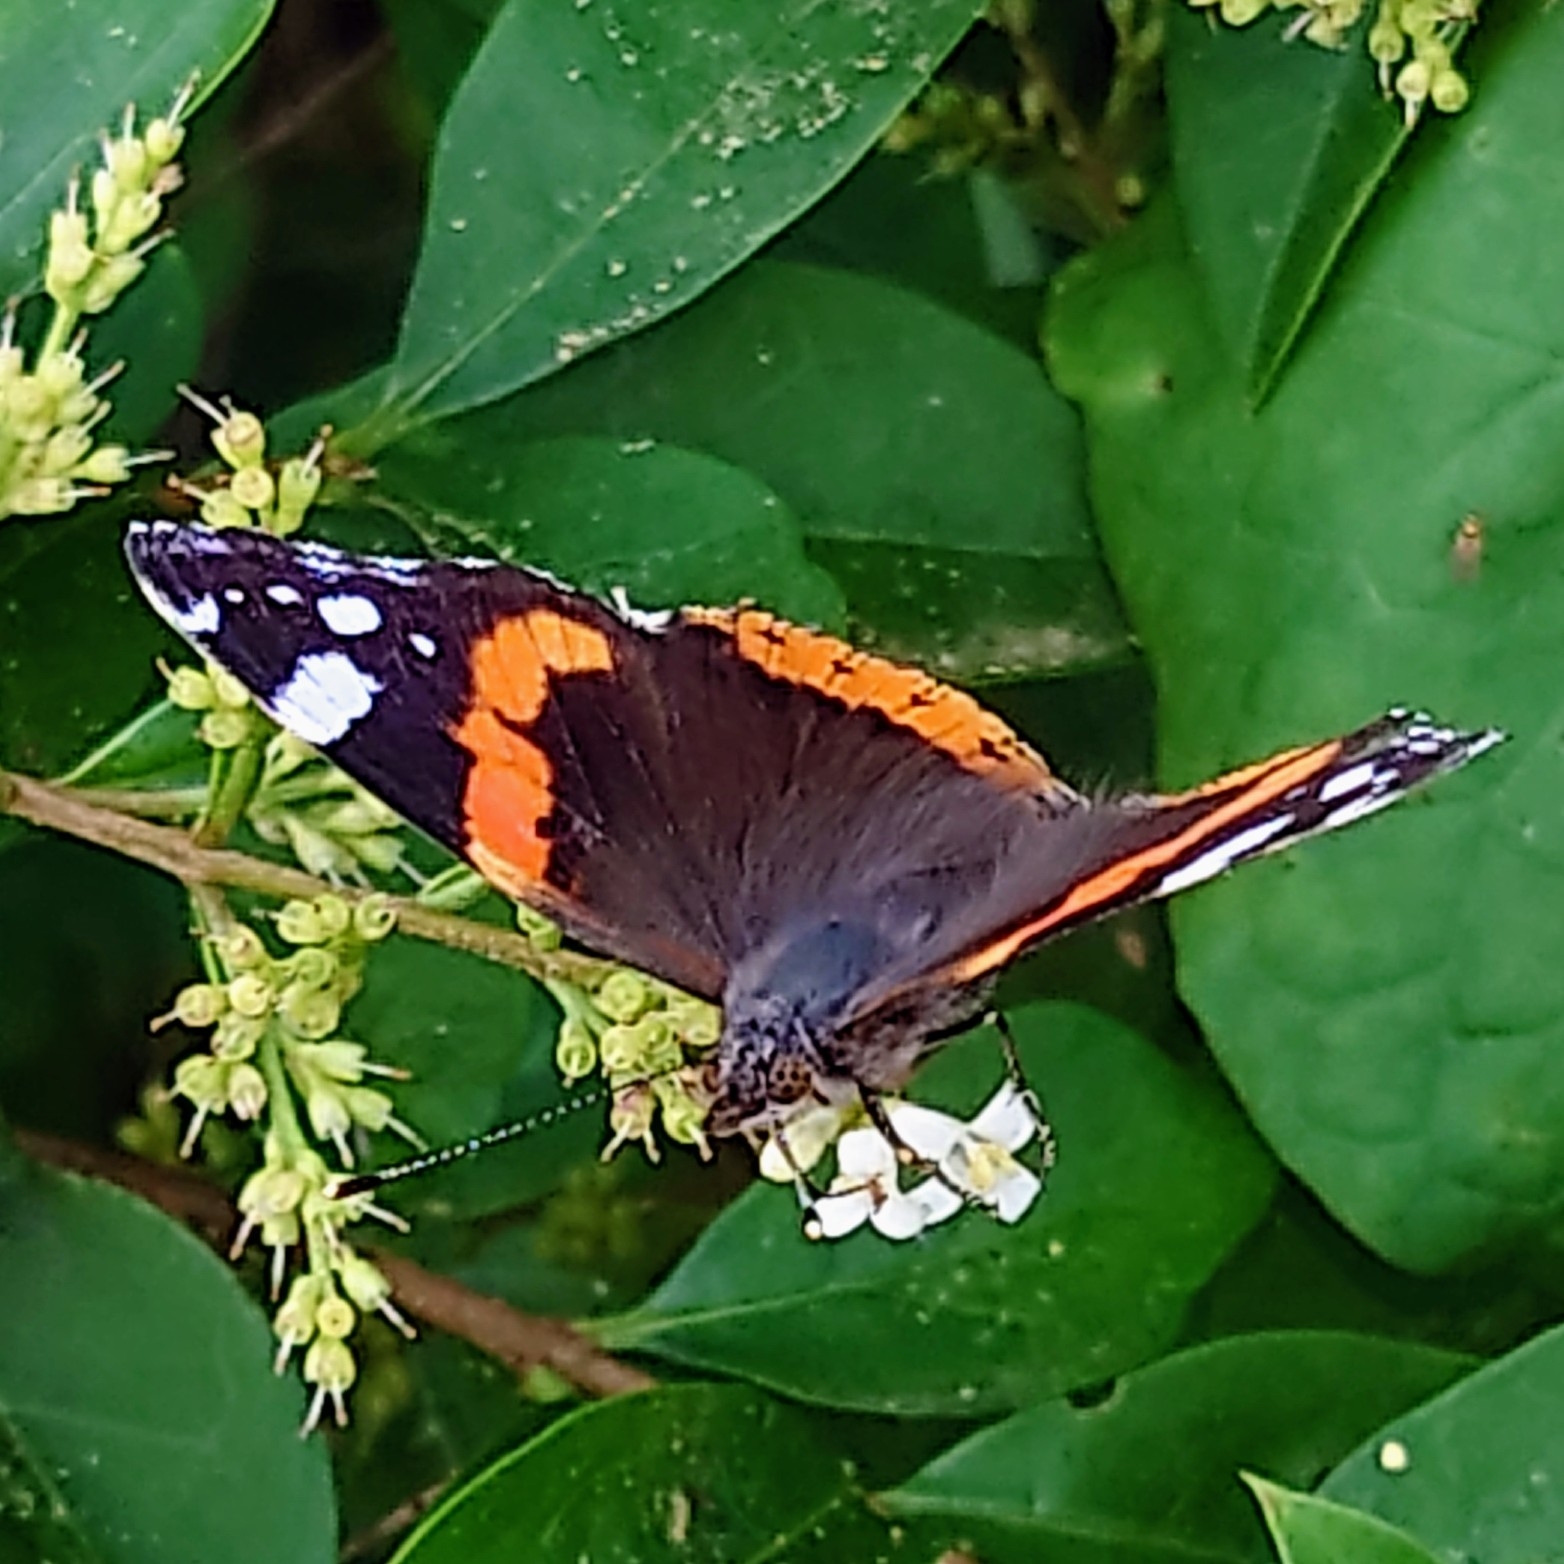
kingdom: Animalia
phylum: Arthropoda
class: Insecta
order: Lepidoptera
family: Nymphalidae
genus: Vanessa
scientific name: Vanessa atalanta
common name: Red admiral
